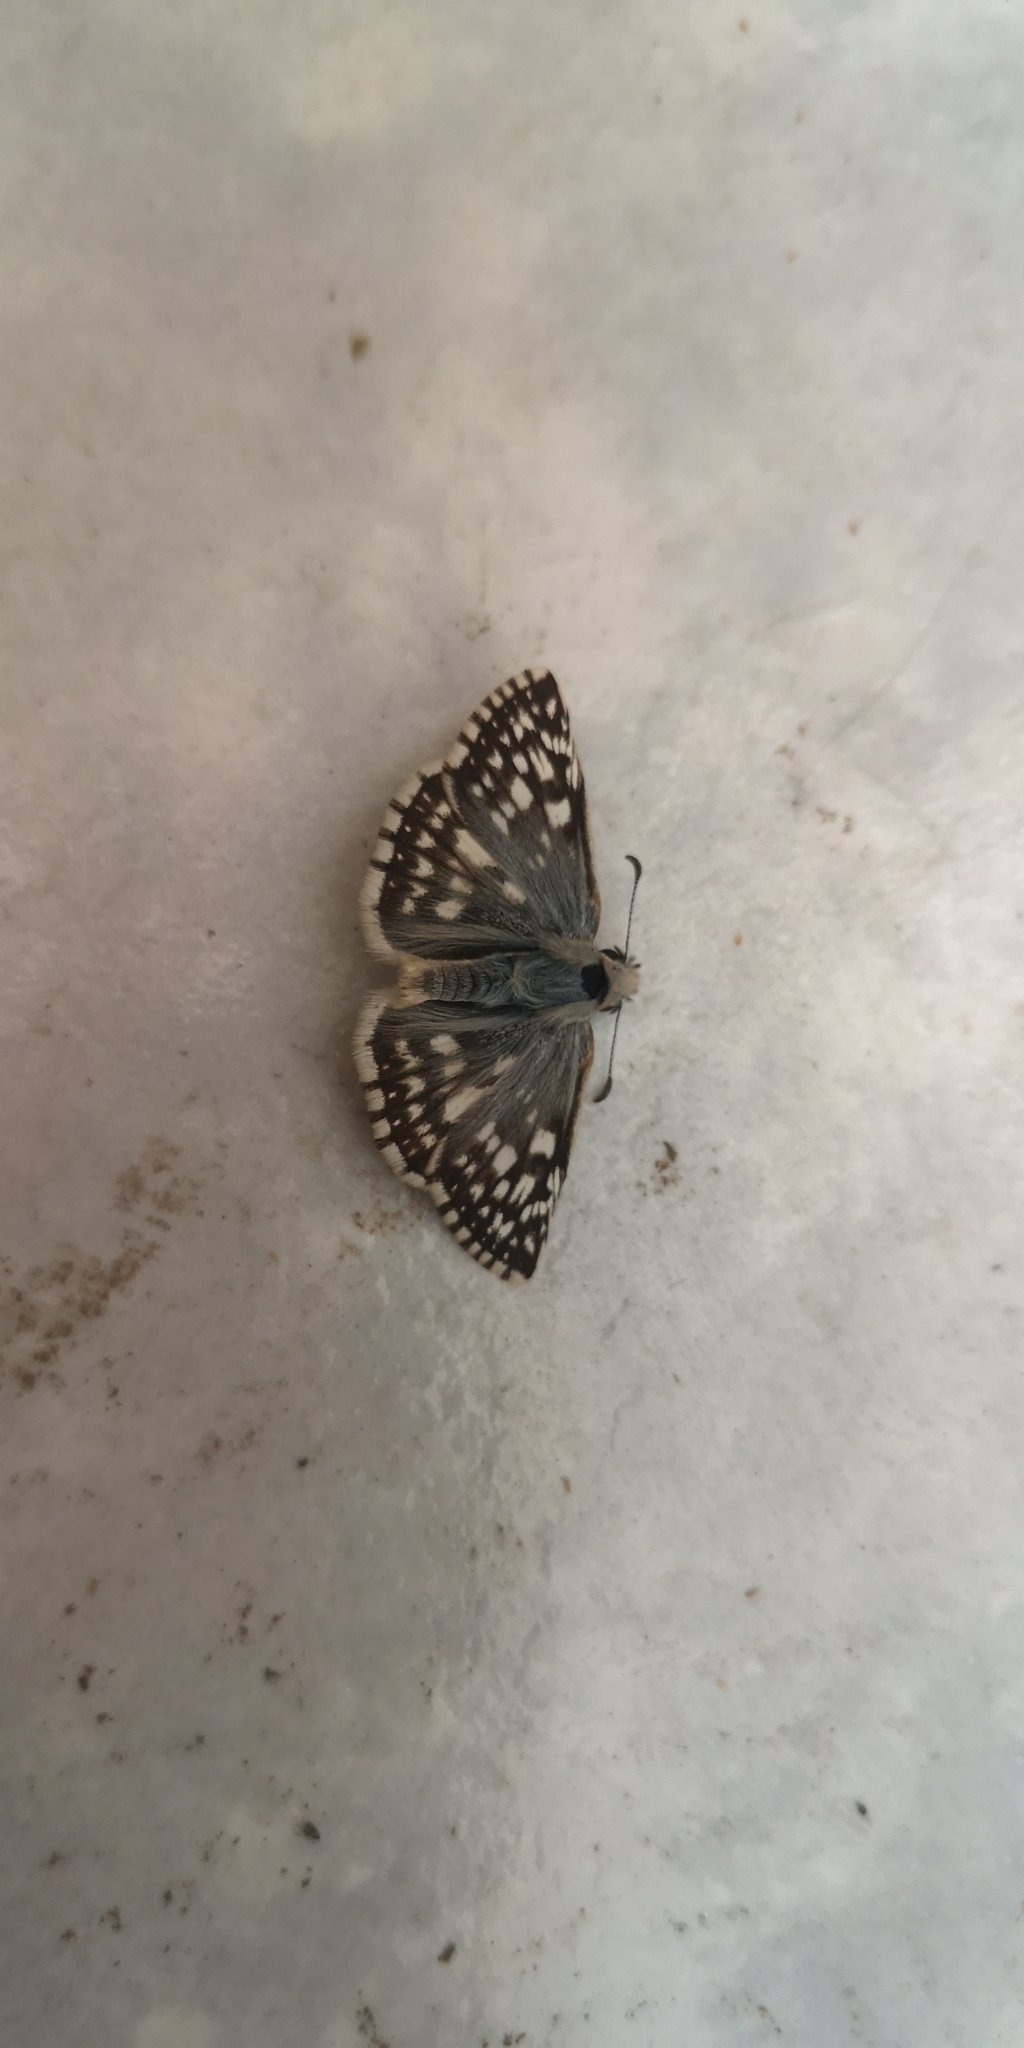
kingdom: Animalia
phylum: Arthropoda
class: Insecta
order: Lepidoptera
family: Hesperiidae
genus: Heliopetes
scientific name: Heliopetes americanus
